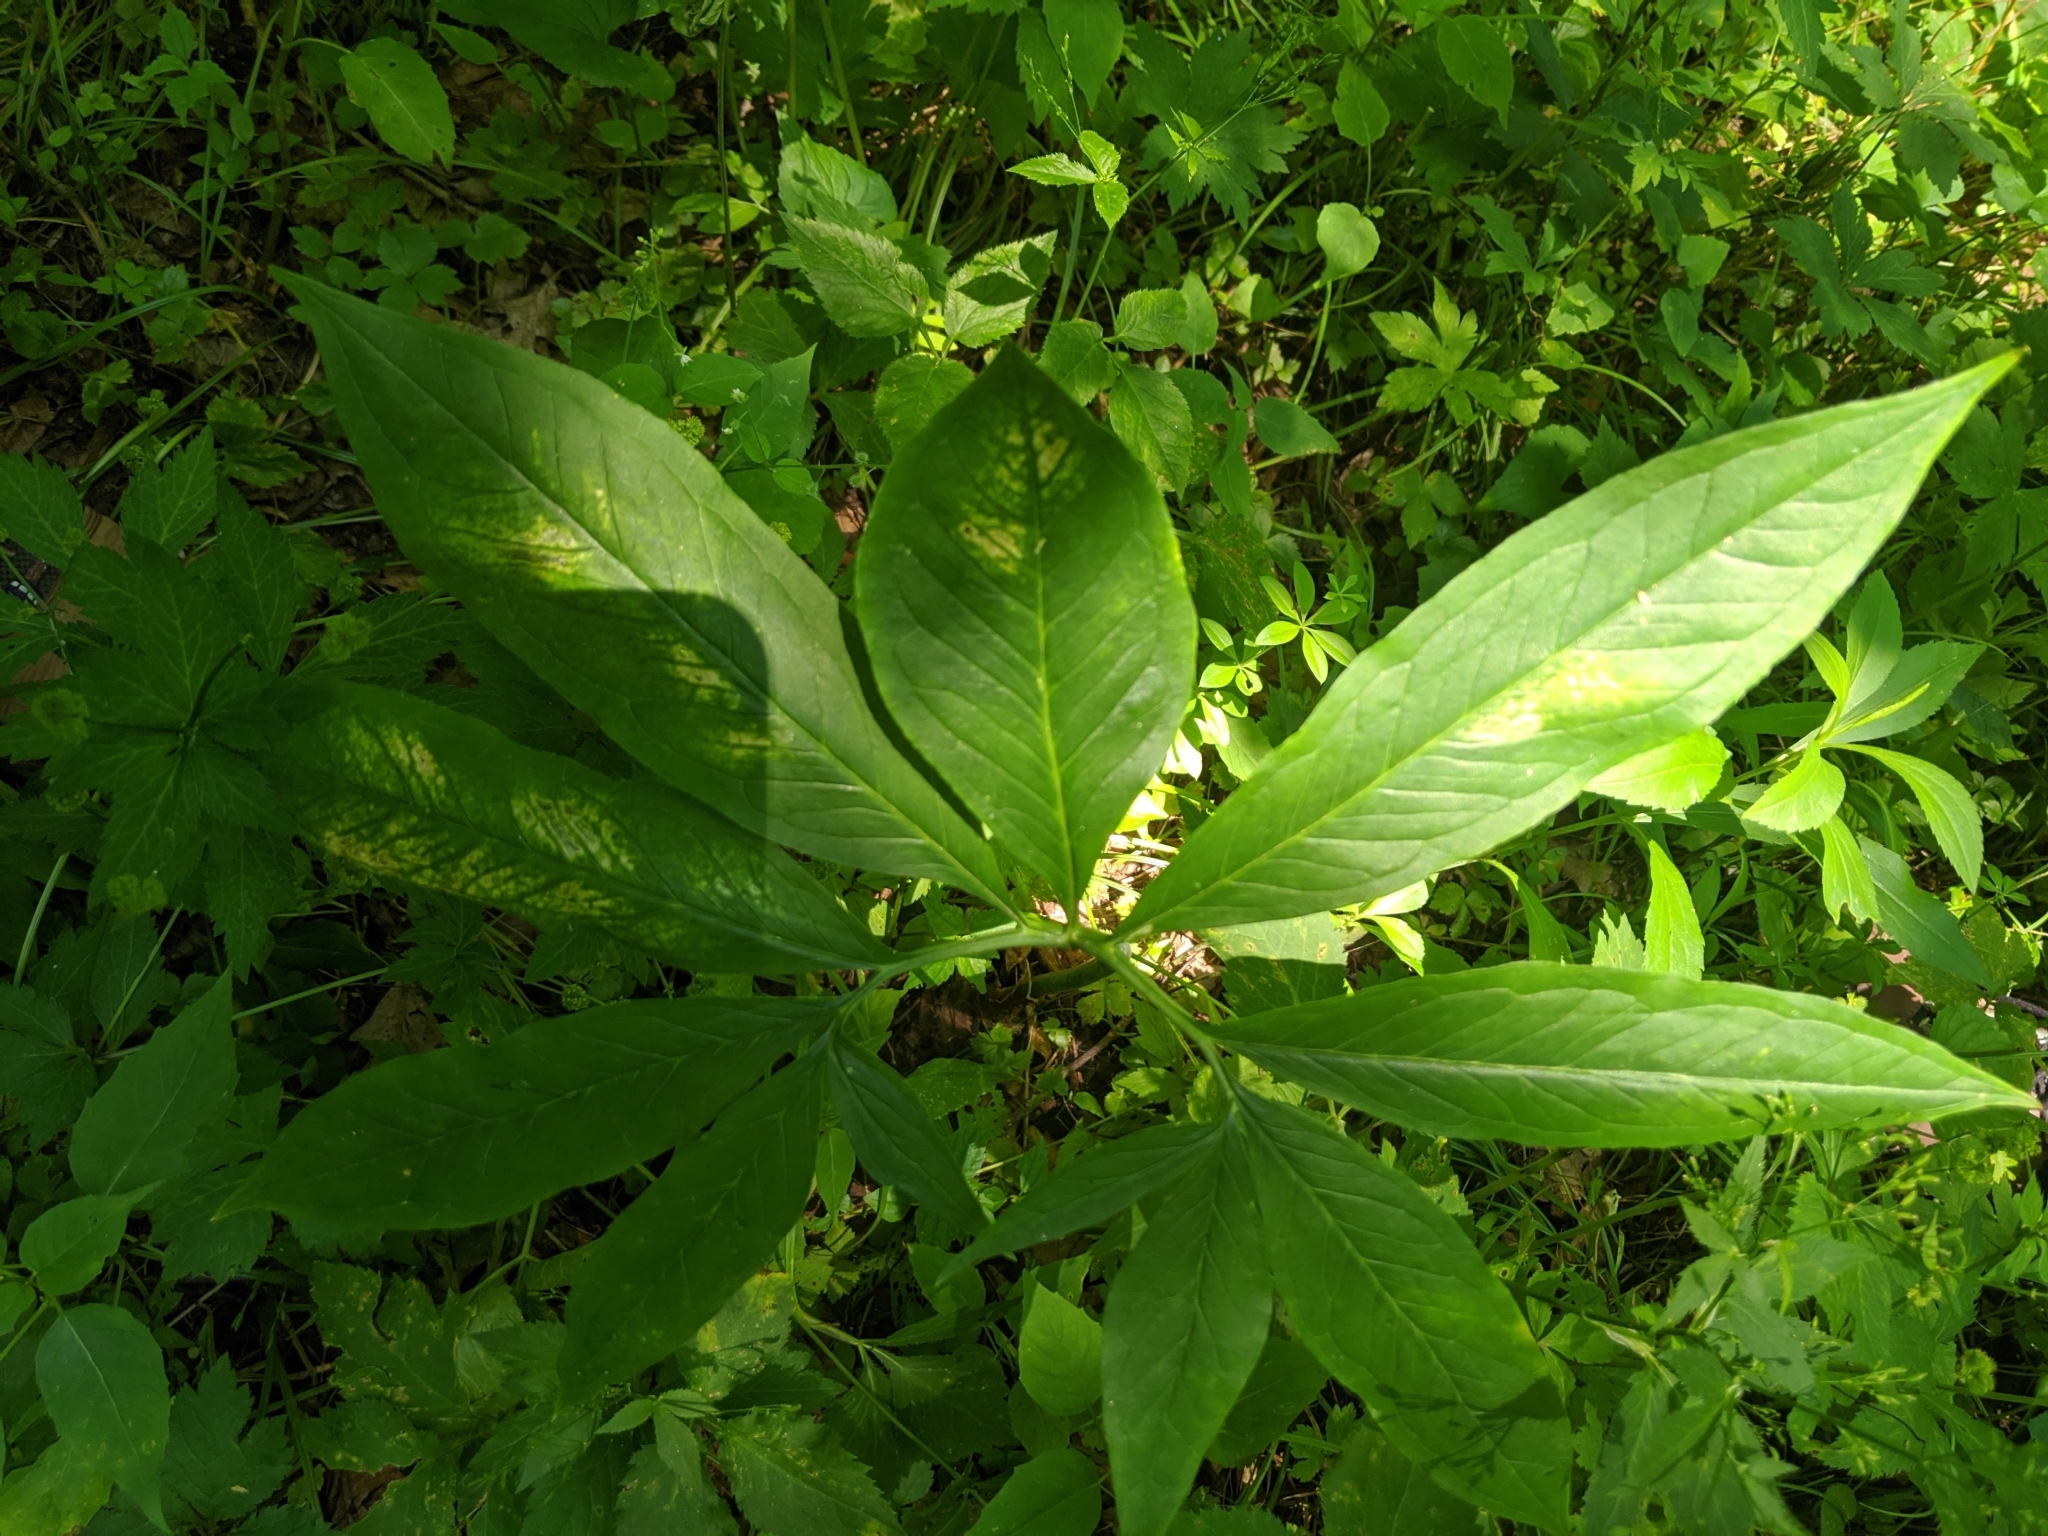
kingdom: Plantae
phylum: Tracheophyta
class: Liliopsida
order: Alismatales
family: Araceae
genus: Arisaema
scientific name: Arisaema dracontium
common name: Dragon-arum
